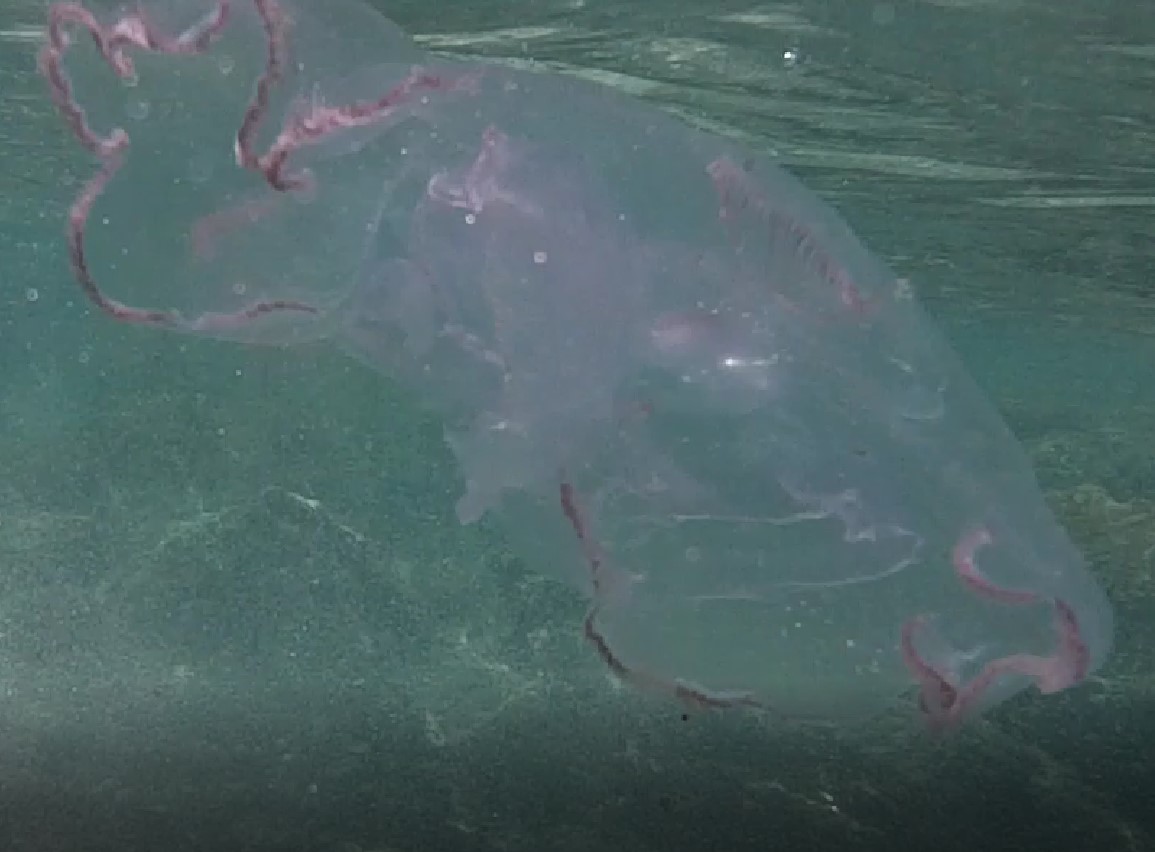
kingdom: Animalia
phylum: Cnidaria
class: Scyphozoa
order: Semaeostomeae
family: Ulmaridae
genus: Aurelia
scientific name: Aurelia marginalis
